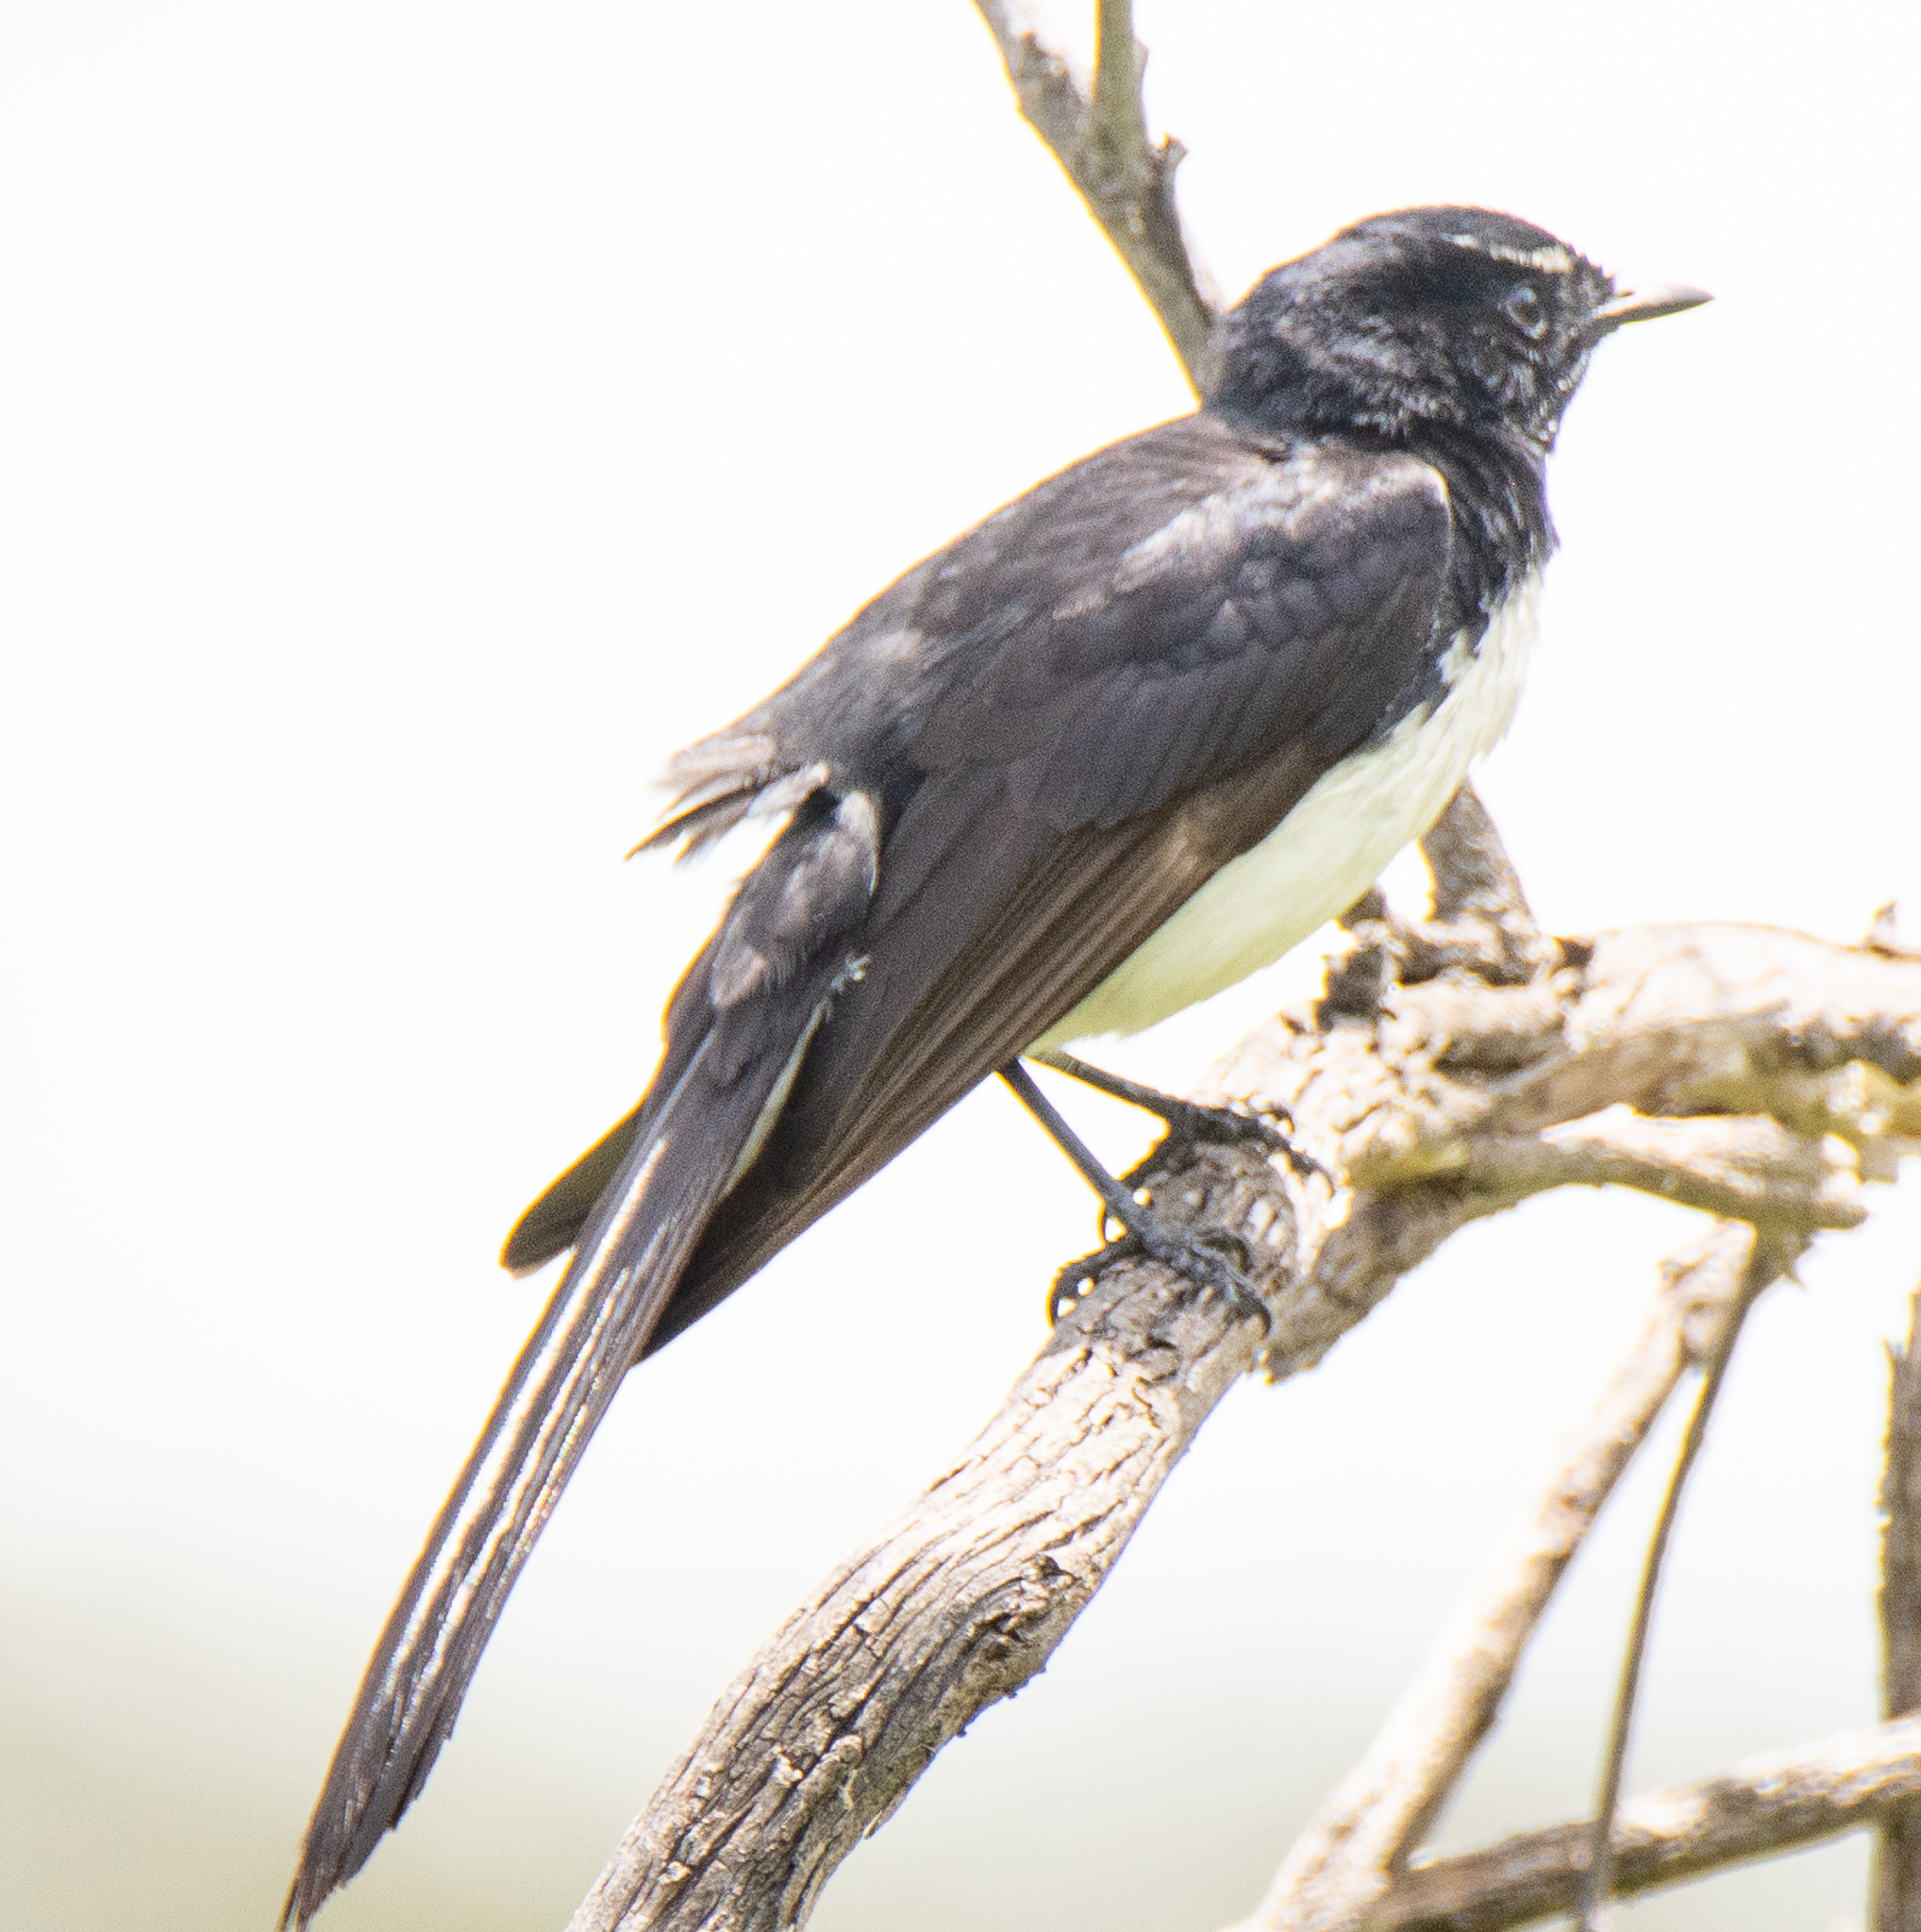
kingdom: Animalia
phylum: Chordata
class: Aves
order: Passeriformes
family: Rhipiduridae
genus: Rhipidura
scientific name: Rhipidura leucophrys
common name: Willie wagtail
